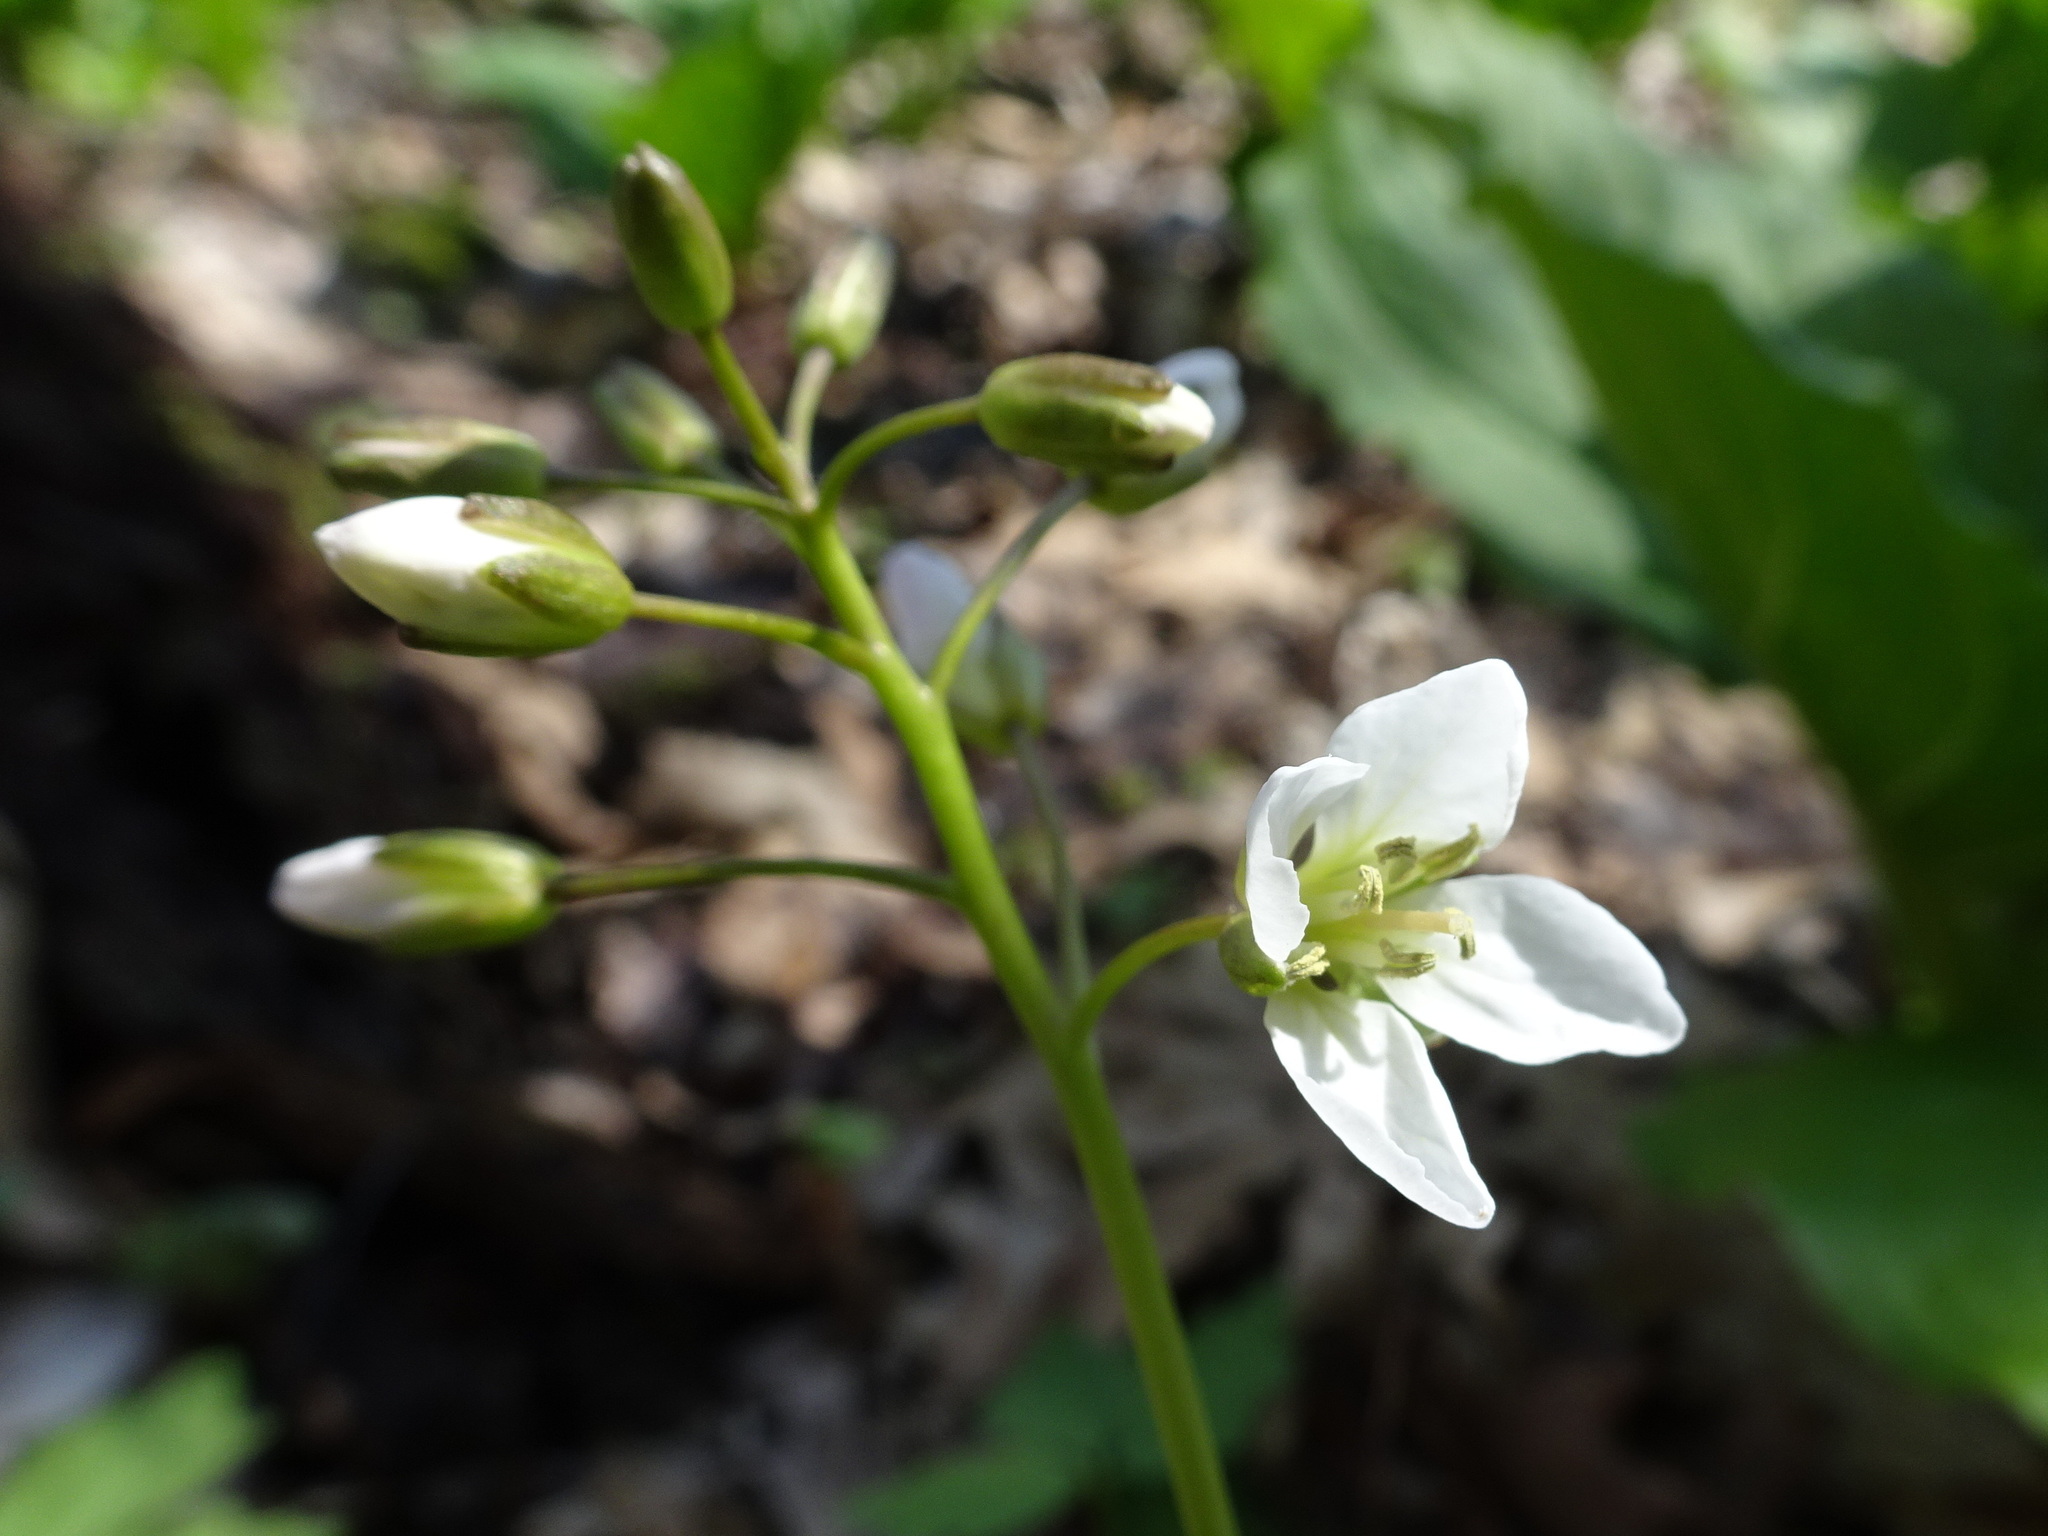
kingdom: Plantae
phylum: Tracheophyta
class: Magnoliopsida
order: Brassicales
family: Brassicaceae
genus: Cardamine
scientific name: Cardamine diphylla
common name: Broad-leaved toothwort
